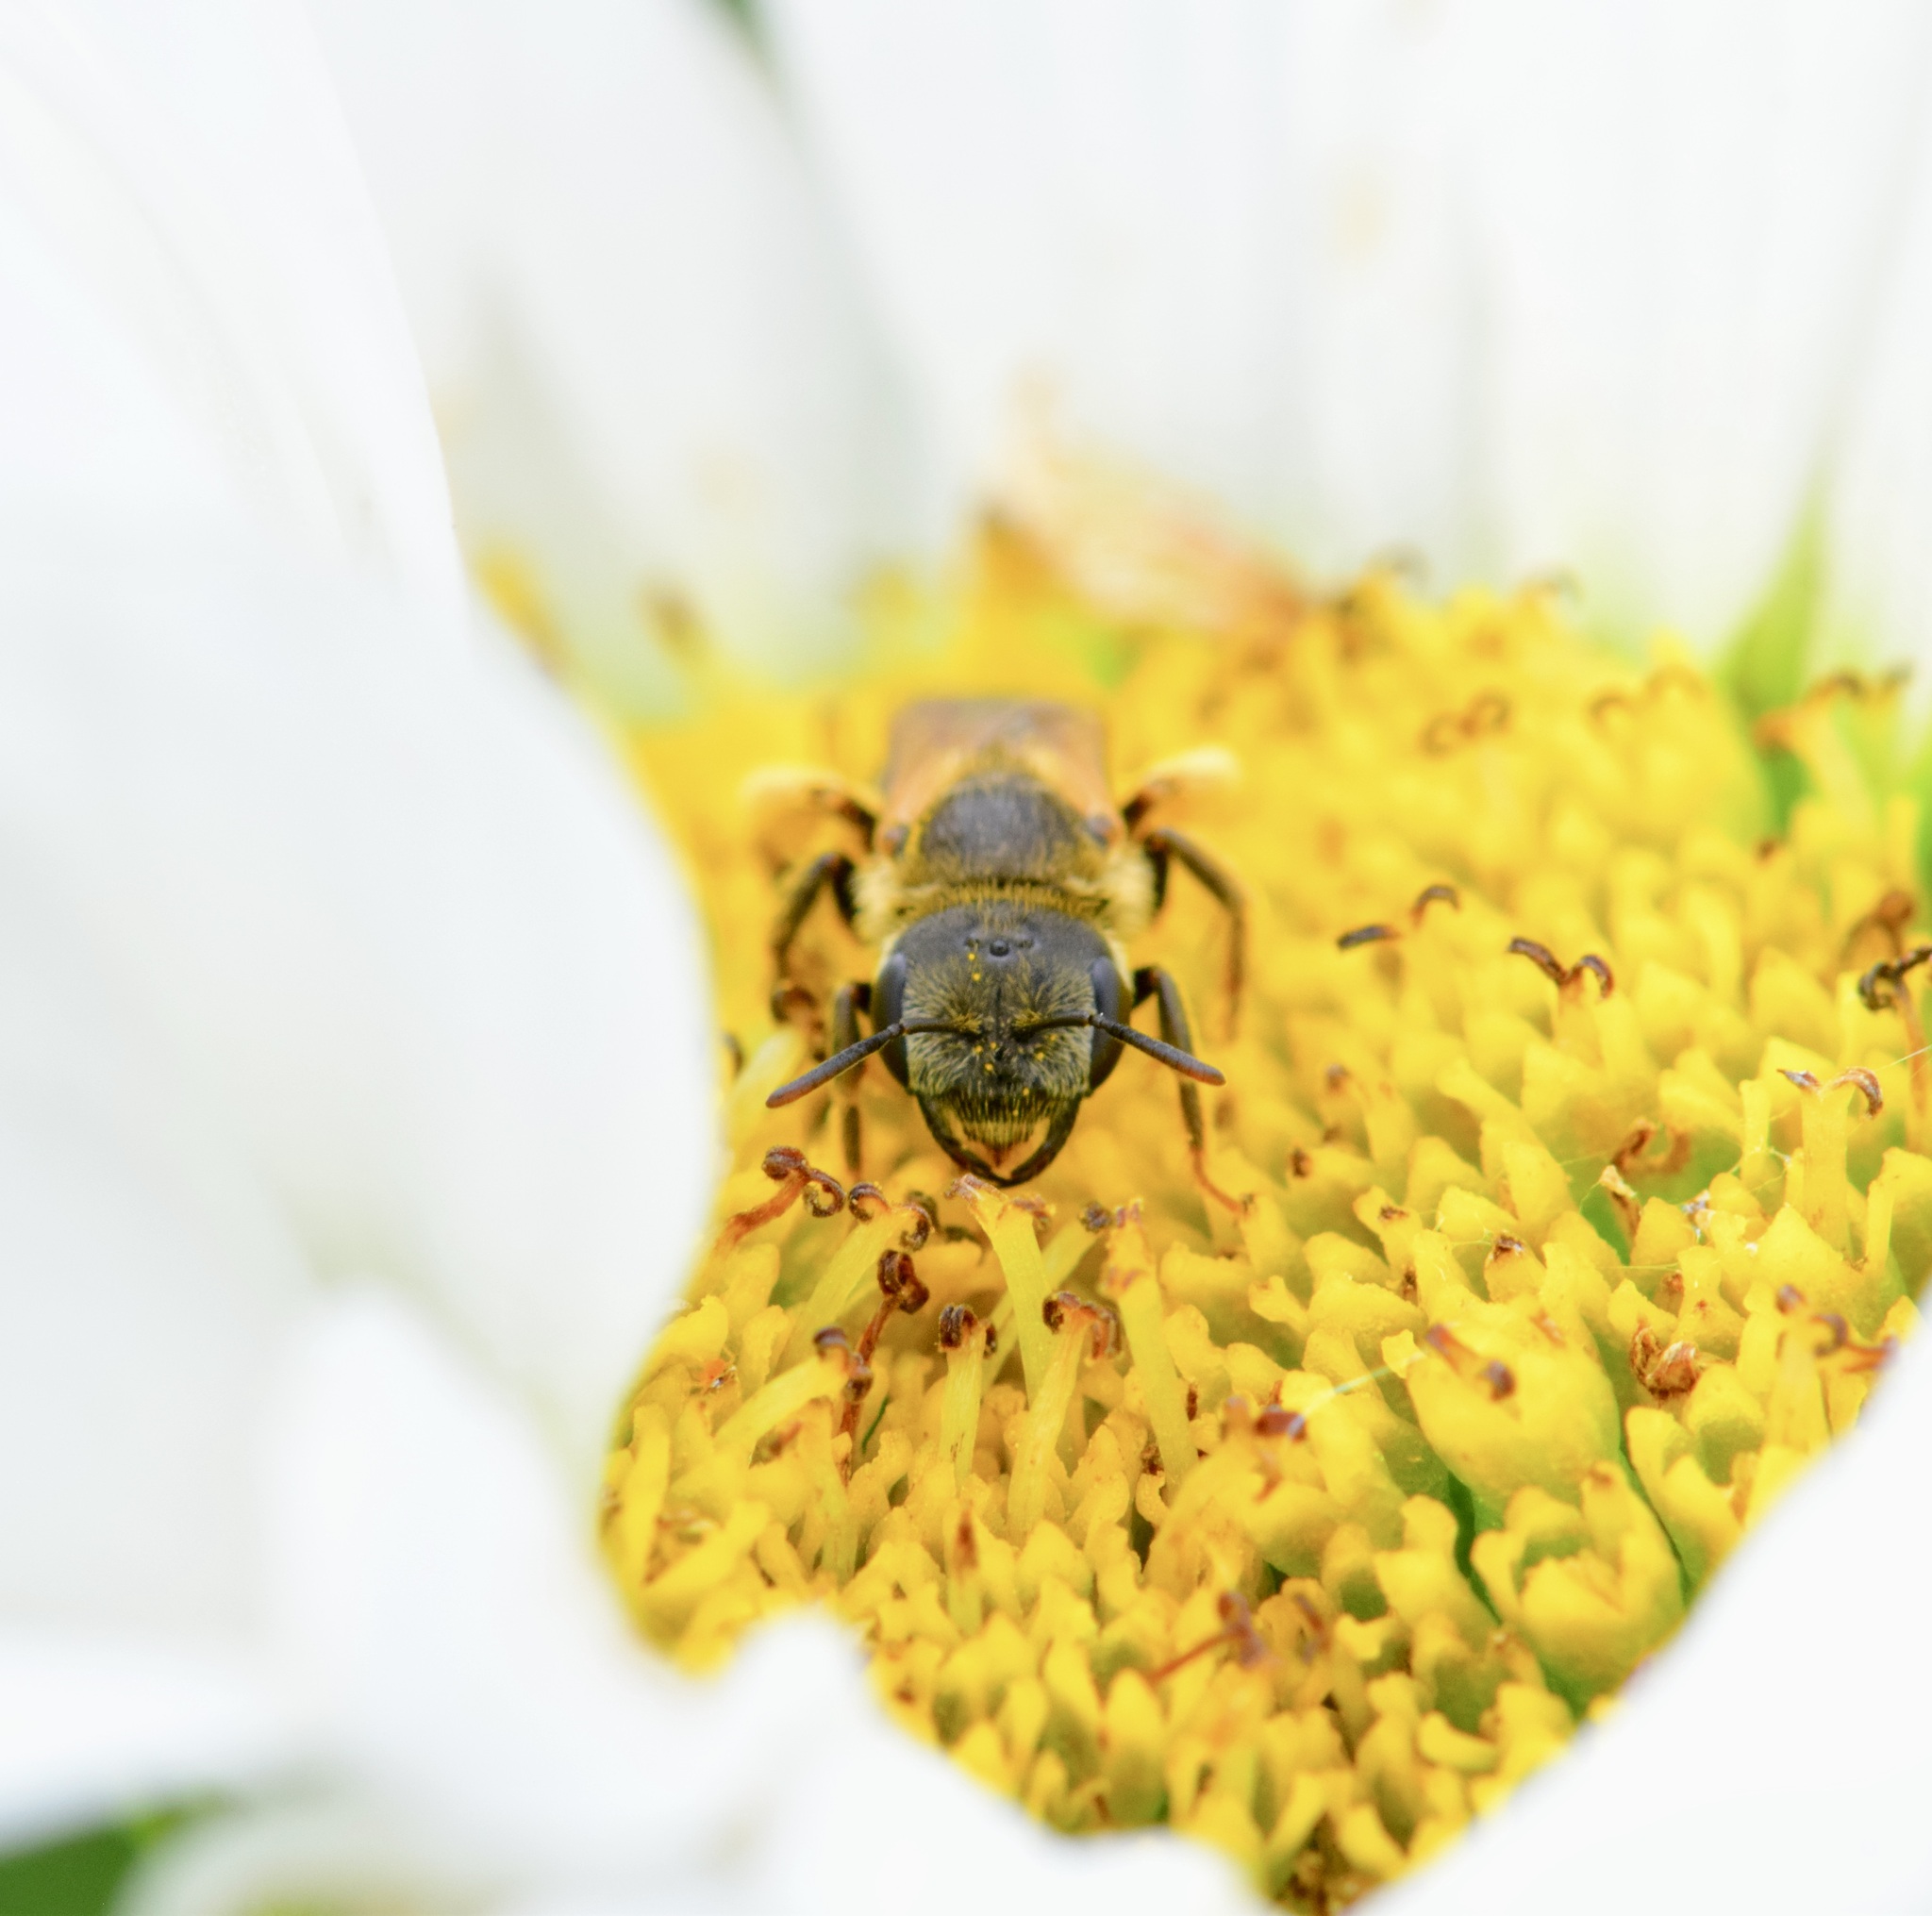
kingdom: Animalia
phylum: Arthropoda
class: Insecta
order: Hymenoptera
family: Halictidae
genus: Halictus
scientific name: Halictus ligatus
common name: Ligated furrow bee
